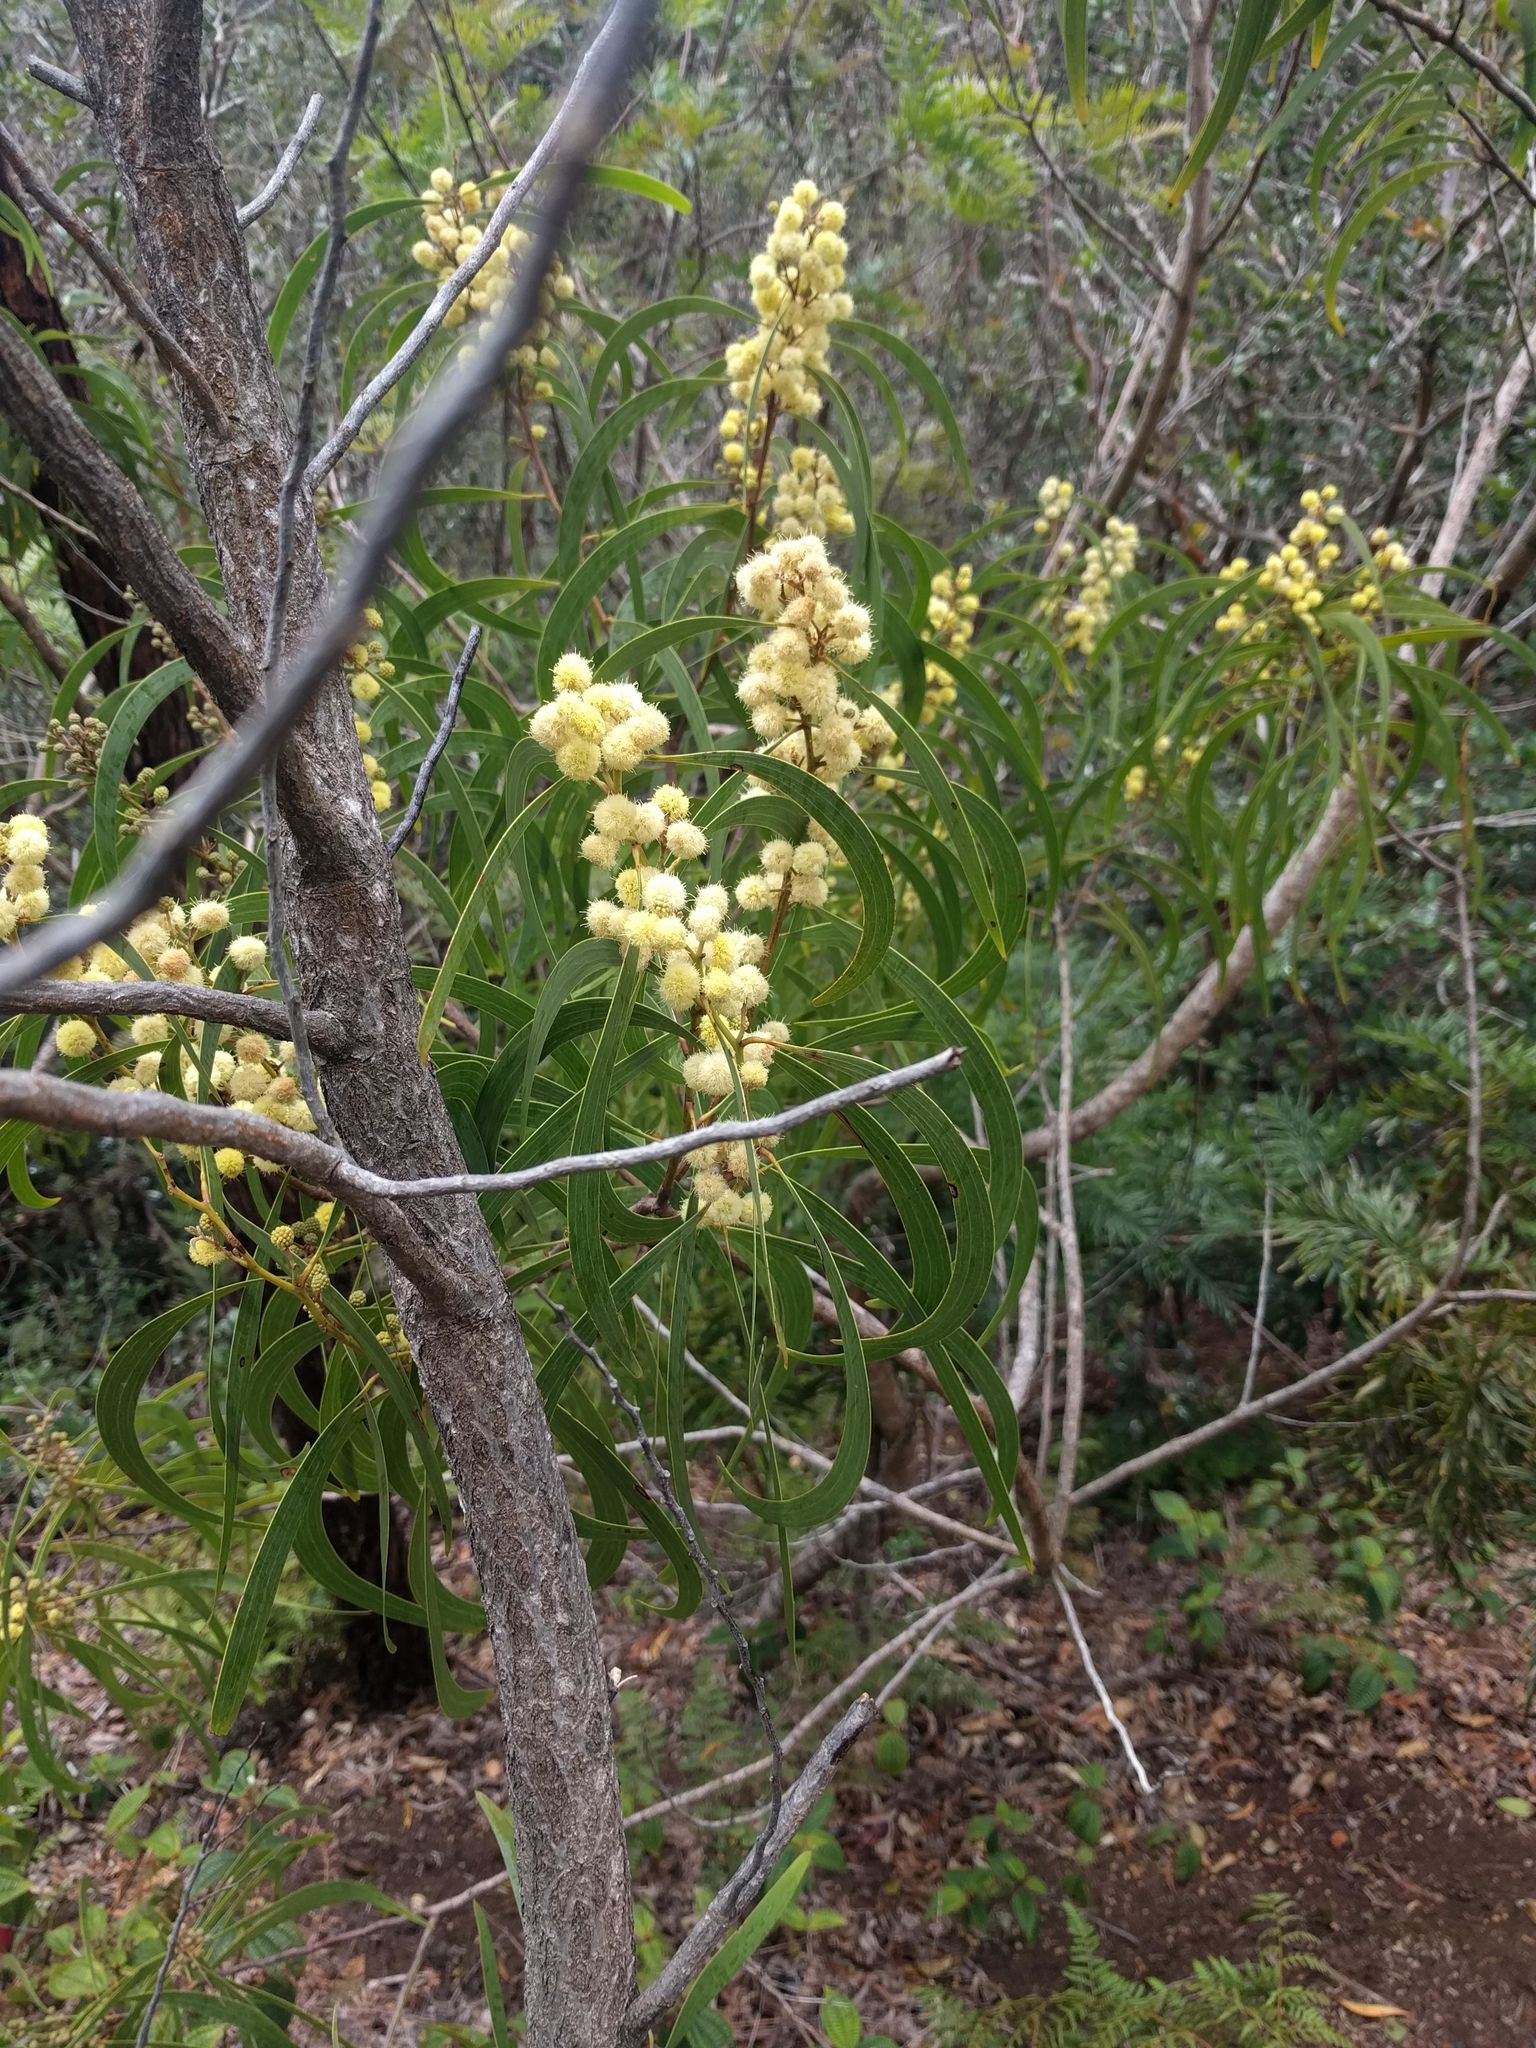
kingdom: Plantae
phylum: Tracheophyta
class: Magnoliopsida
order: Fabales
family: Fabaceae
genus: Acacia
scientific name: Acacia koa
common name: Gray koa
